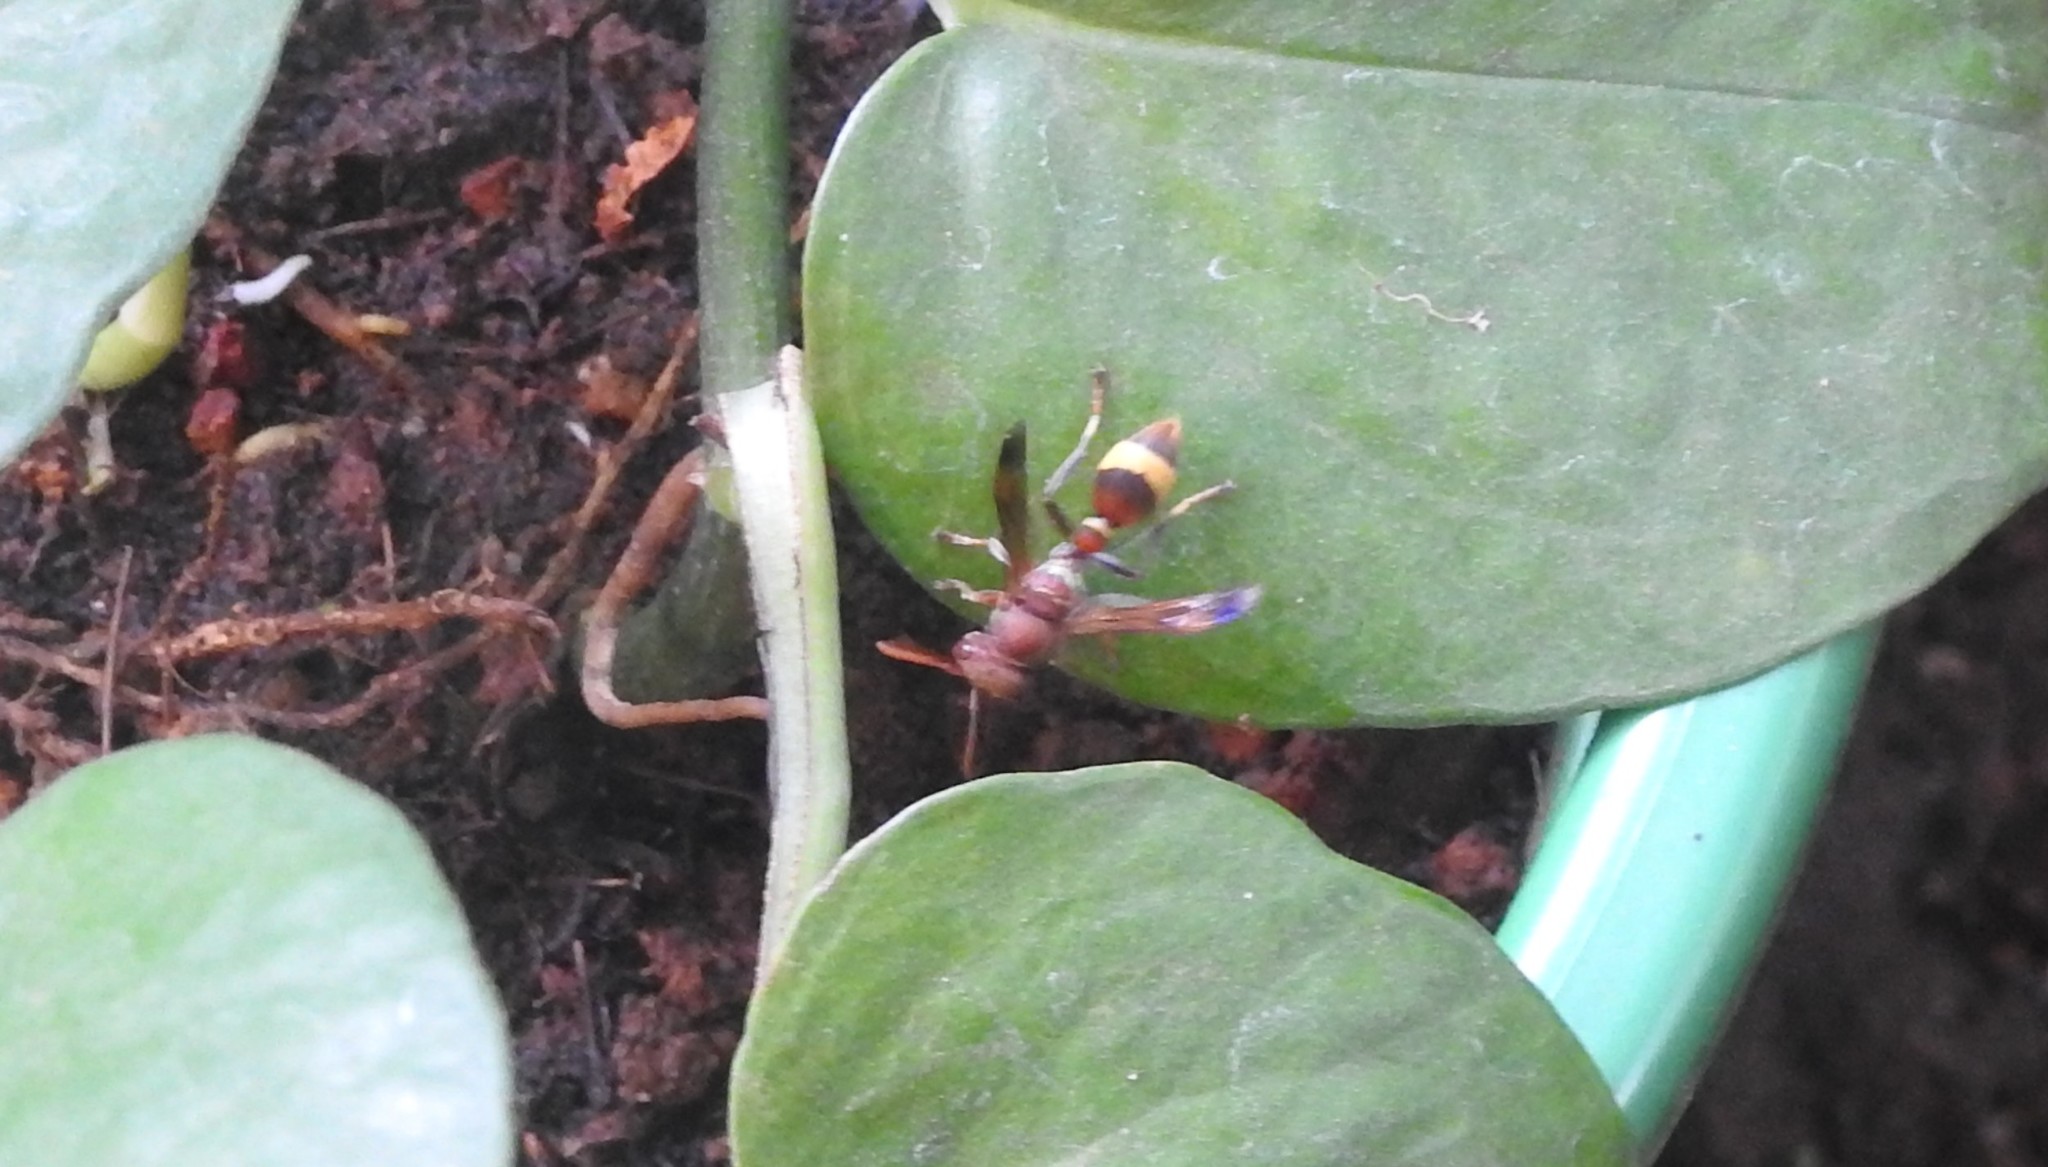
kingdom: Animalia
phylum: Arthropoda
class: Insecta
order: Hymenoptera
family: Vespidae
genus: Ropalidia
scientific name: Ropalidia
